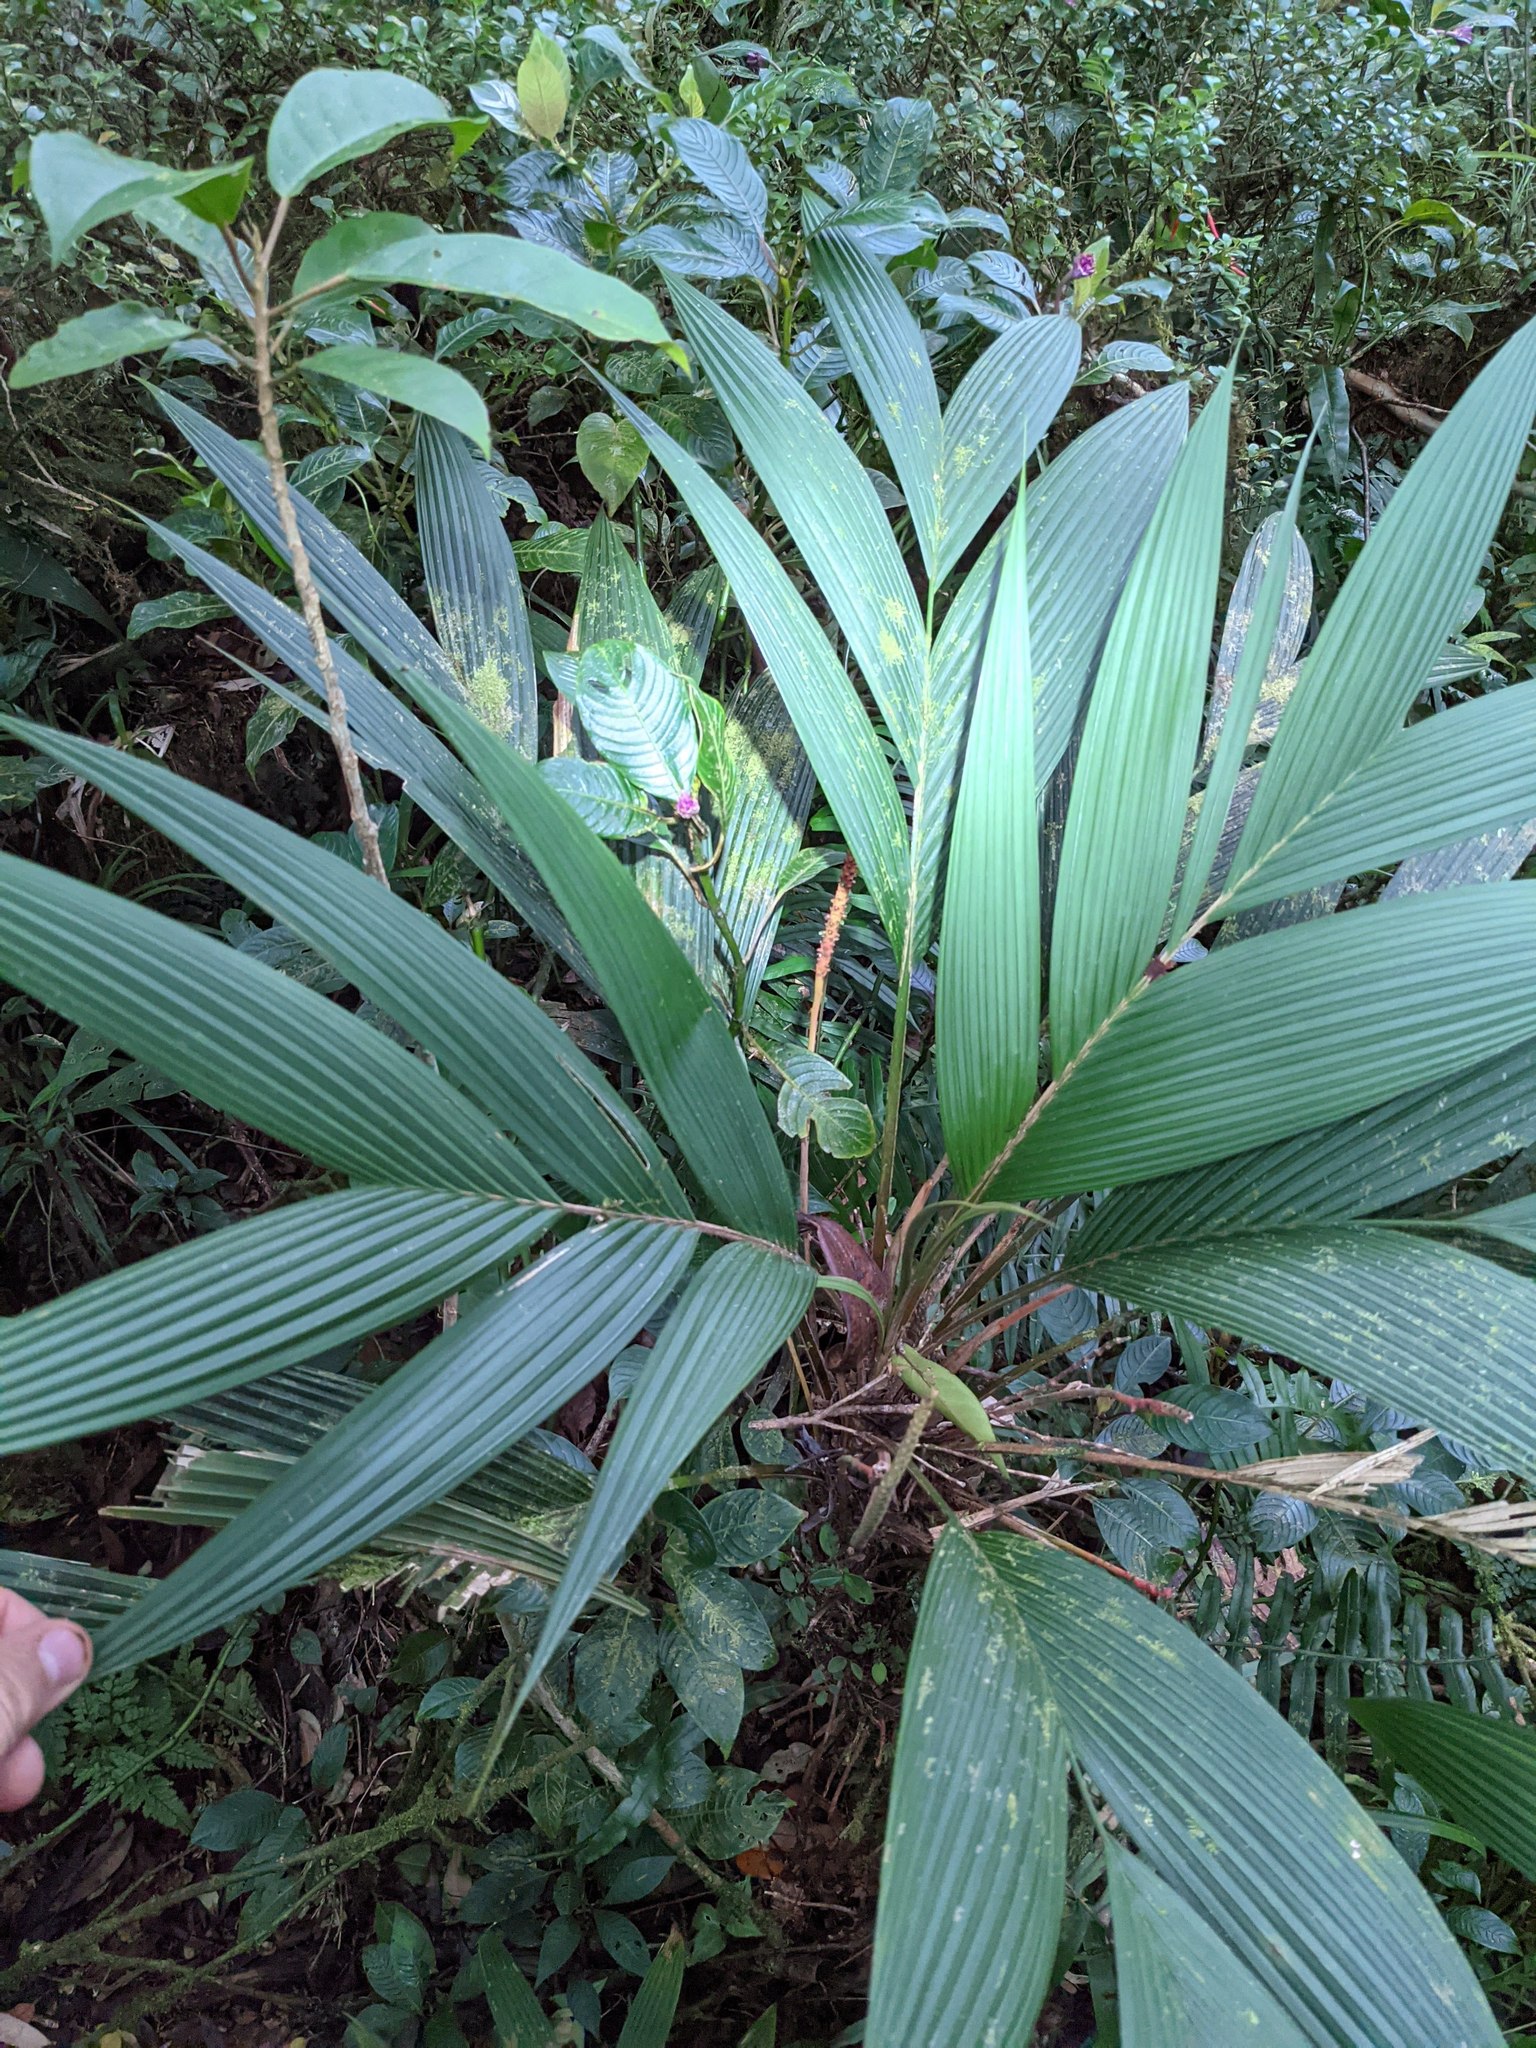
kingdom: Plantae
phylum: Tracheophyta
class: Liliopsida
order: Arecales
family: Arecaceae
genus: Geonoma
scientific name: Geonoma interrupta
